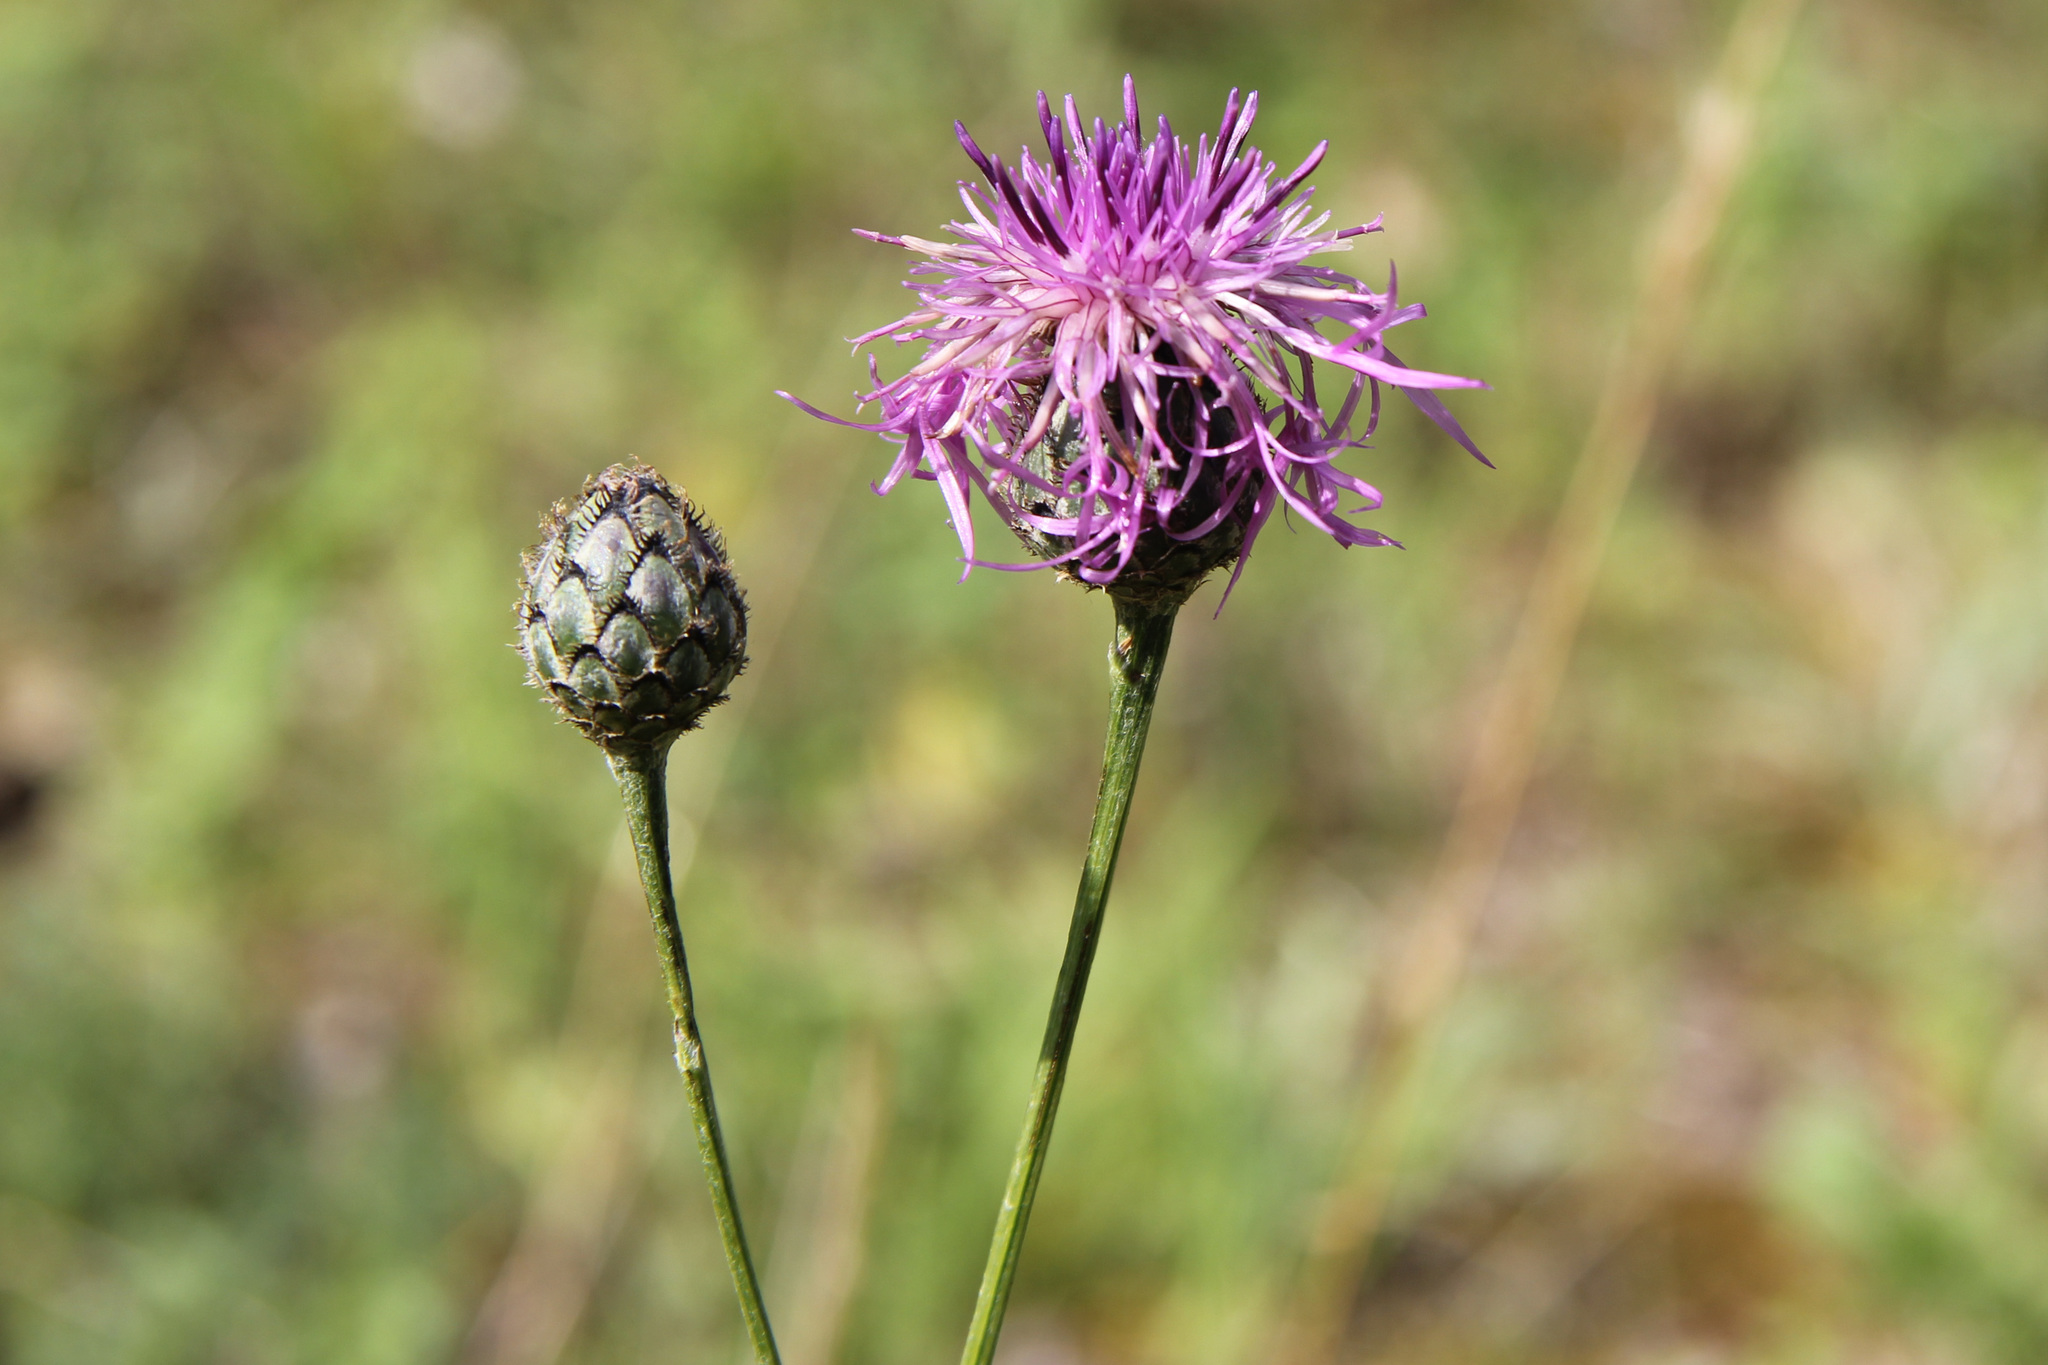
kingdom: Plantae
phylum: Tracheophyta
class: Magnoliopsida
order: Asterales
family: Asteraceae
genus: Centaurea
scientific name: Centaurea scabiosa
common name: Greater knapweed
